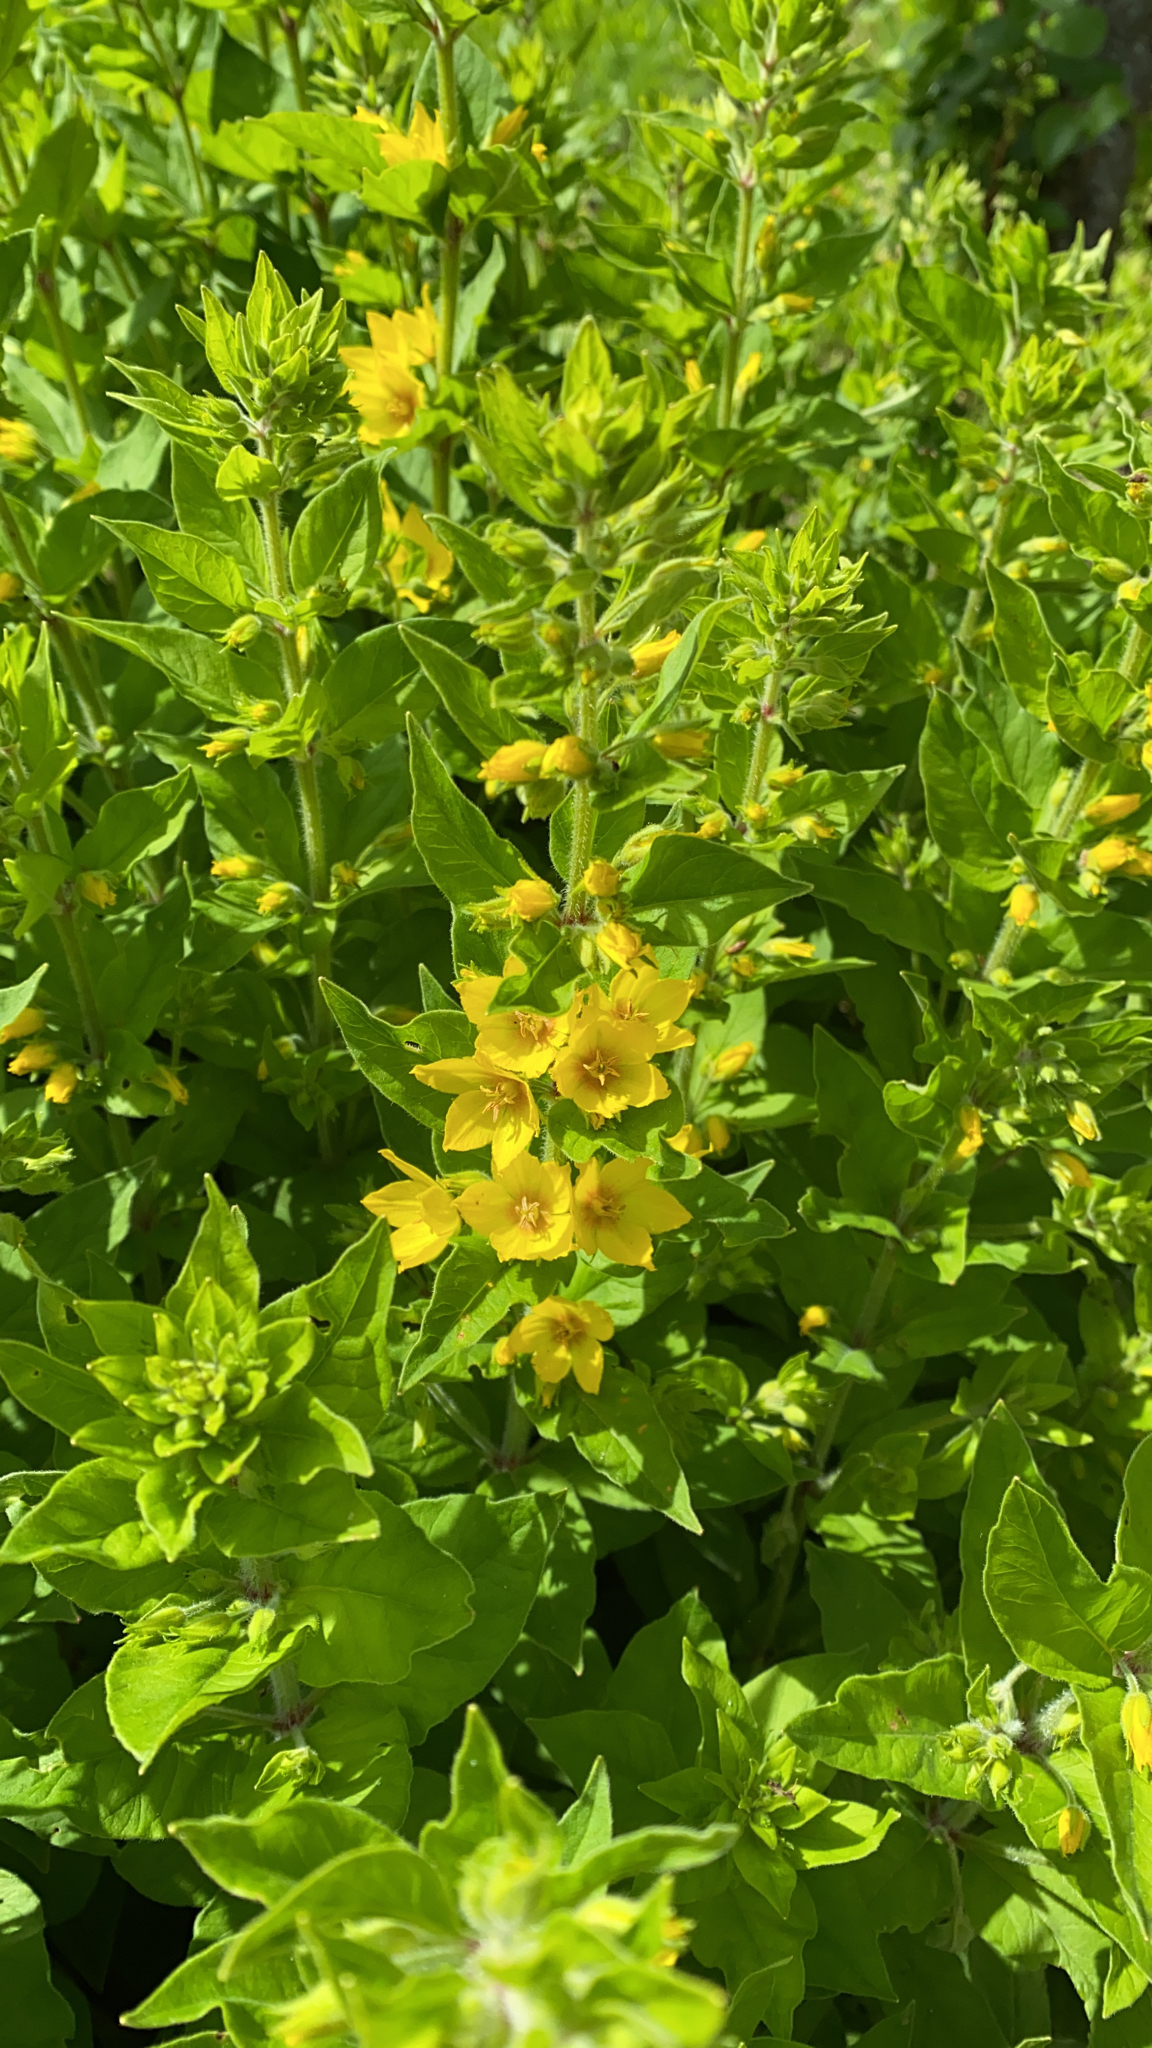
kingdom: Plantae
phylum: Tracheophyta
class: Magnoliopsida
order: Ericales
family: Primulaceae
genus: Lysimachia
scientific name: Lysimachia punctata
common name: Dotted loosestrife
